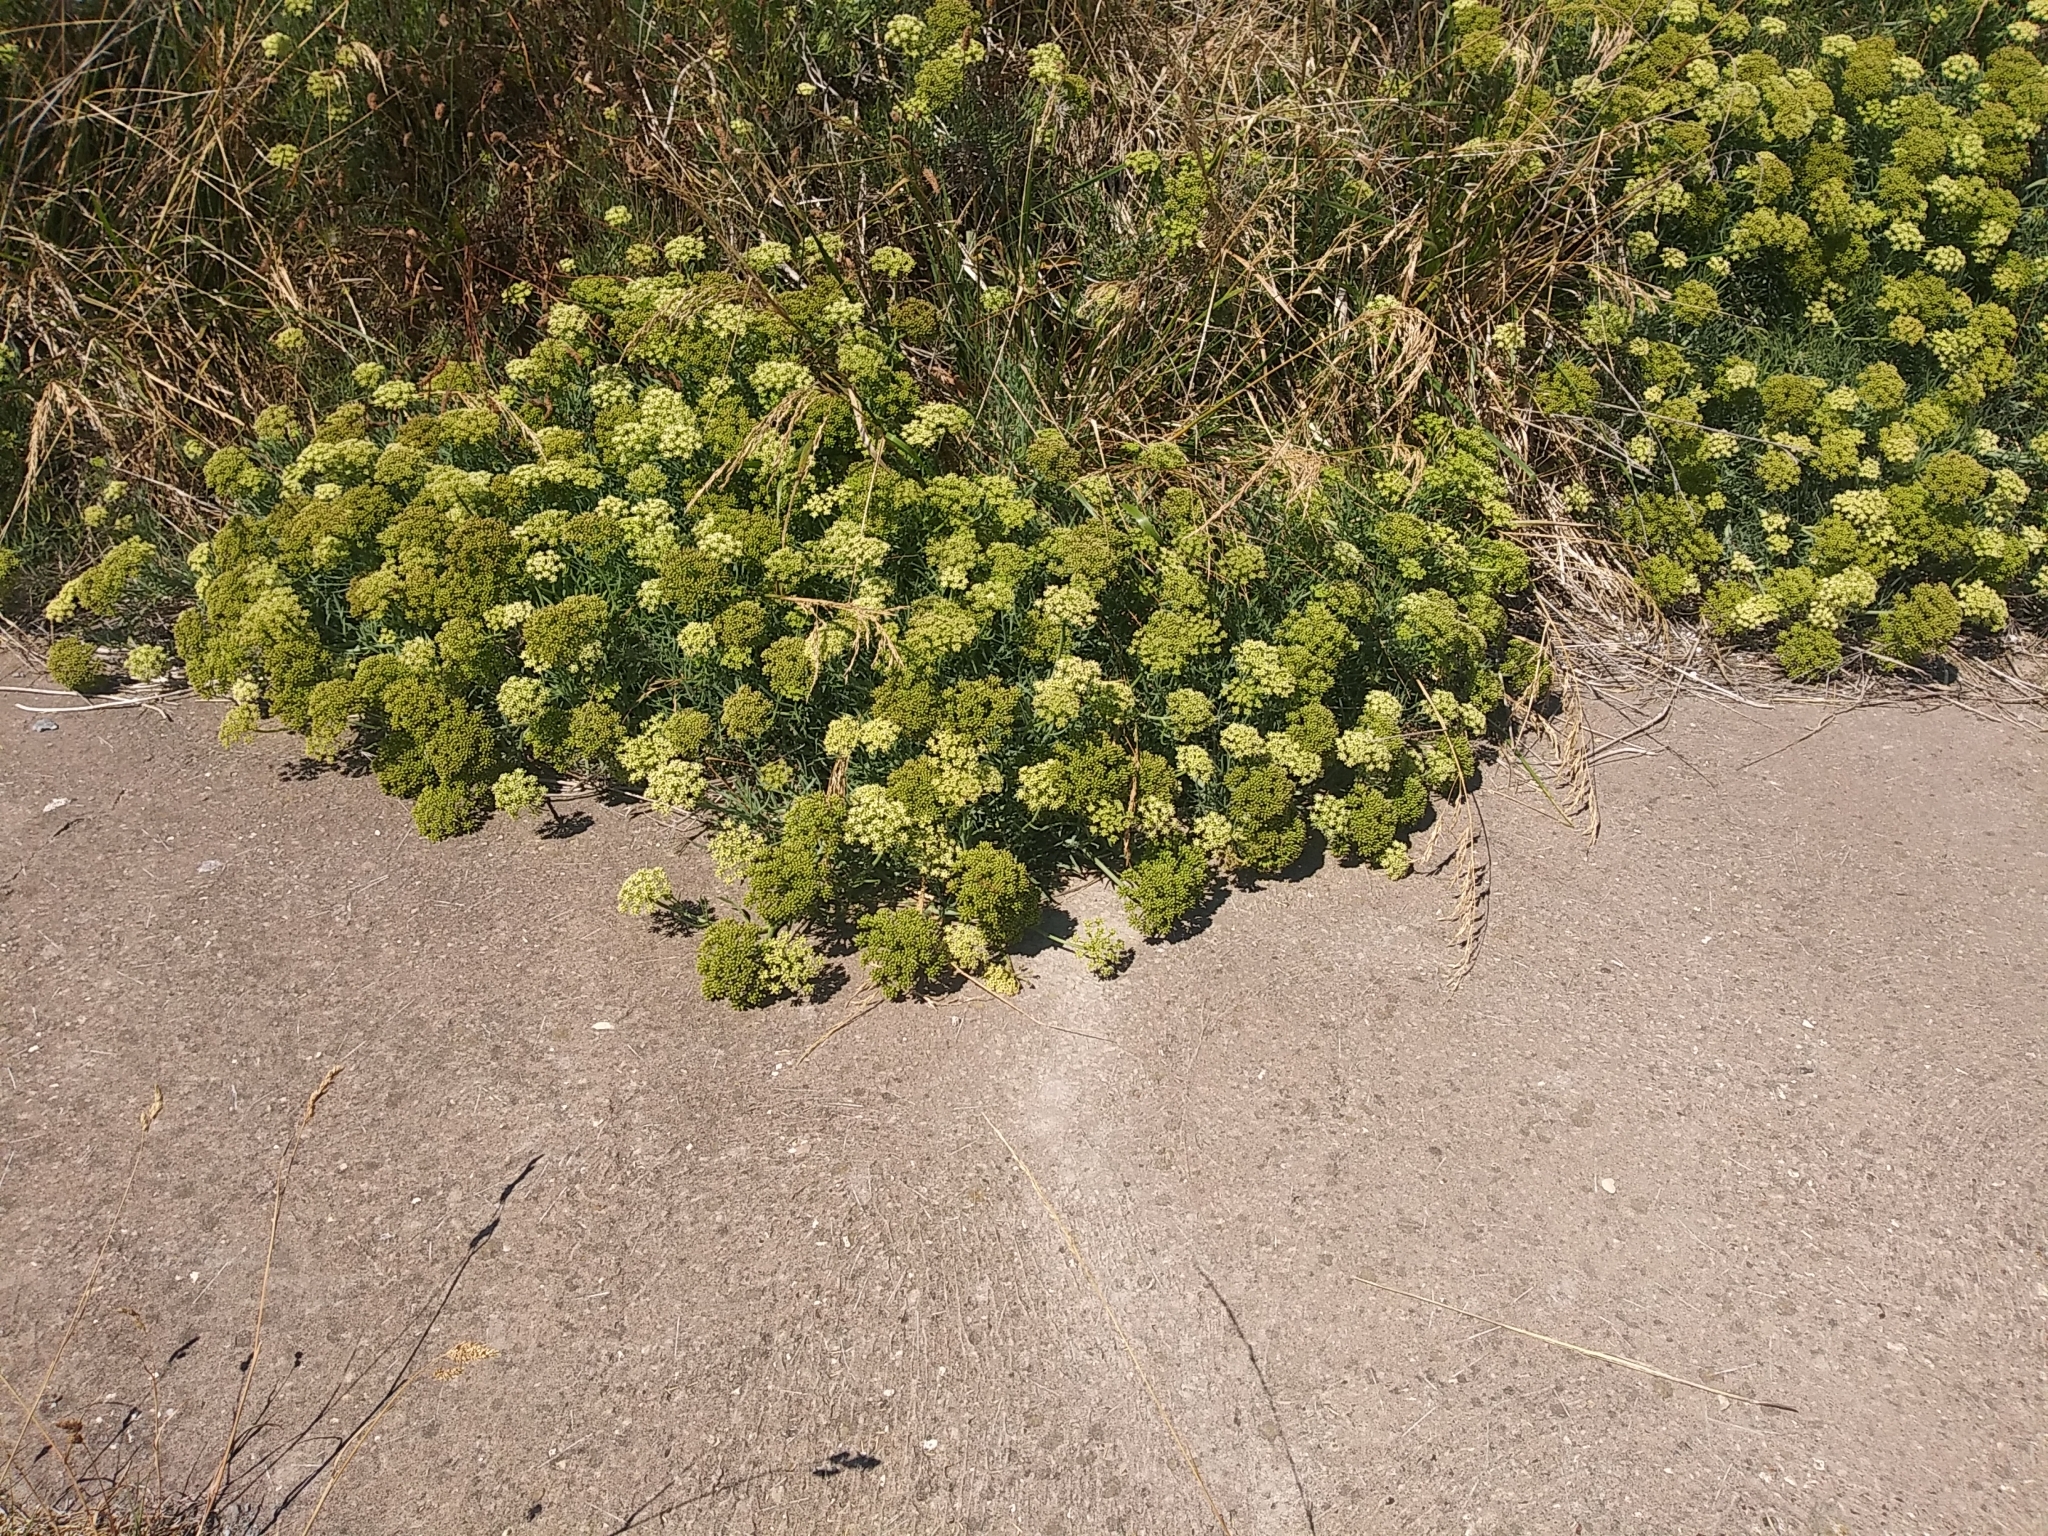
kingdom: Plantae
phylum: Tracheophyta
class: Magnoliopsida
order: Apiales
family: Apiaceae
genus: Crithmum
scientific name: Crithmum maritimum
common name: Rock samphire
